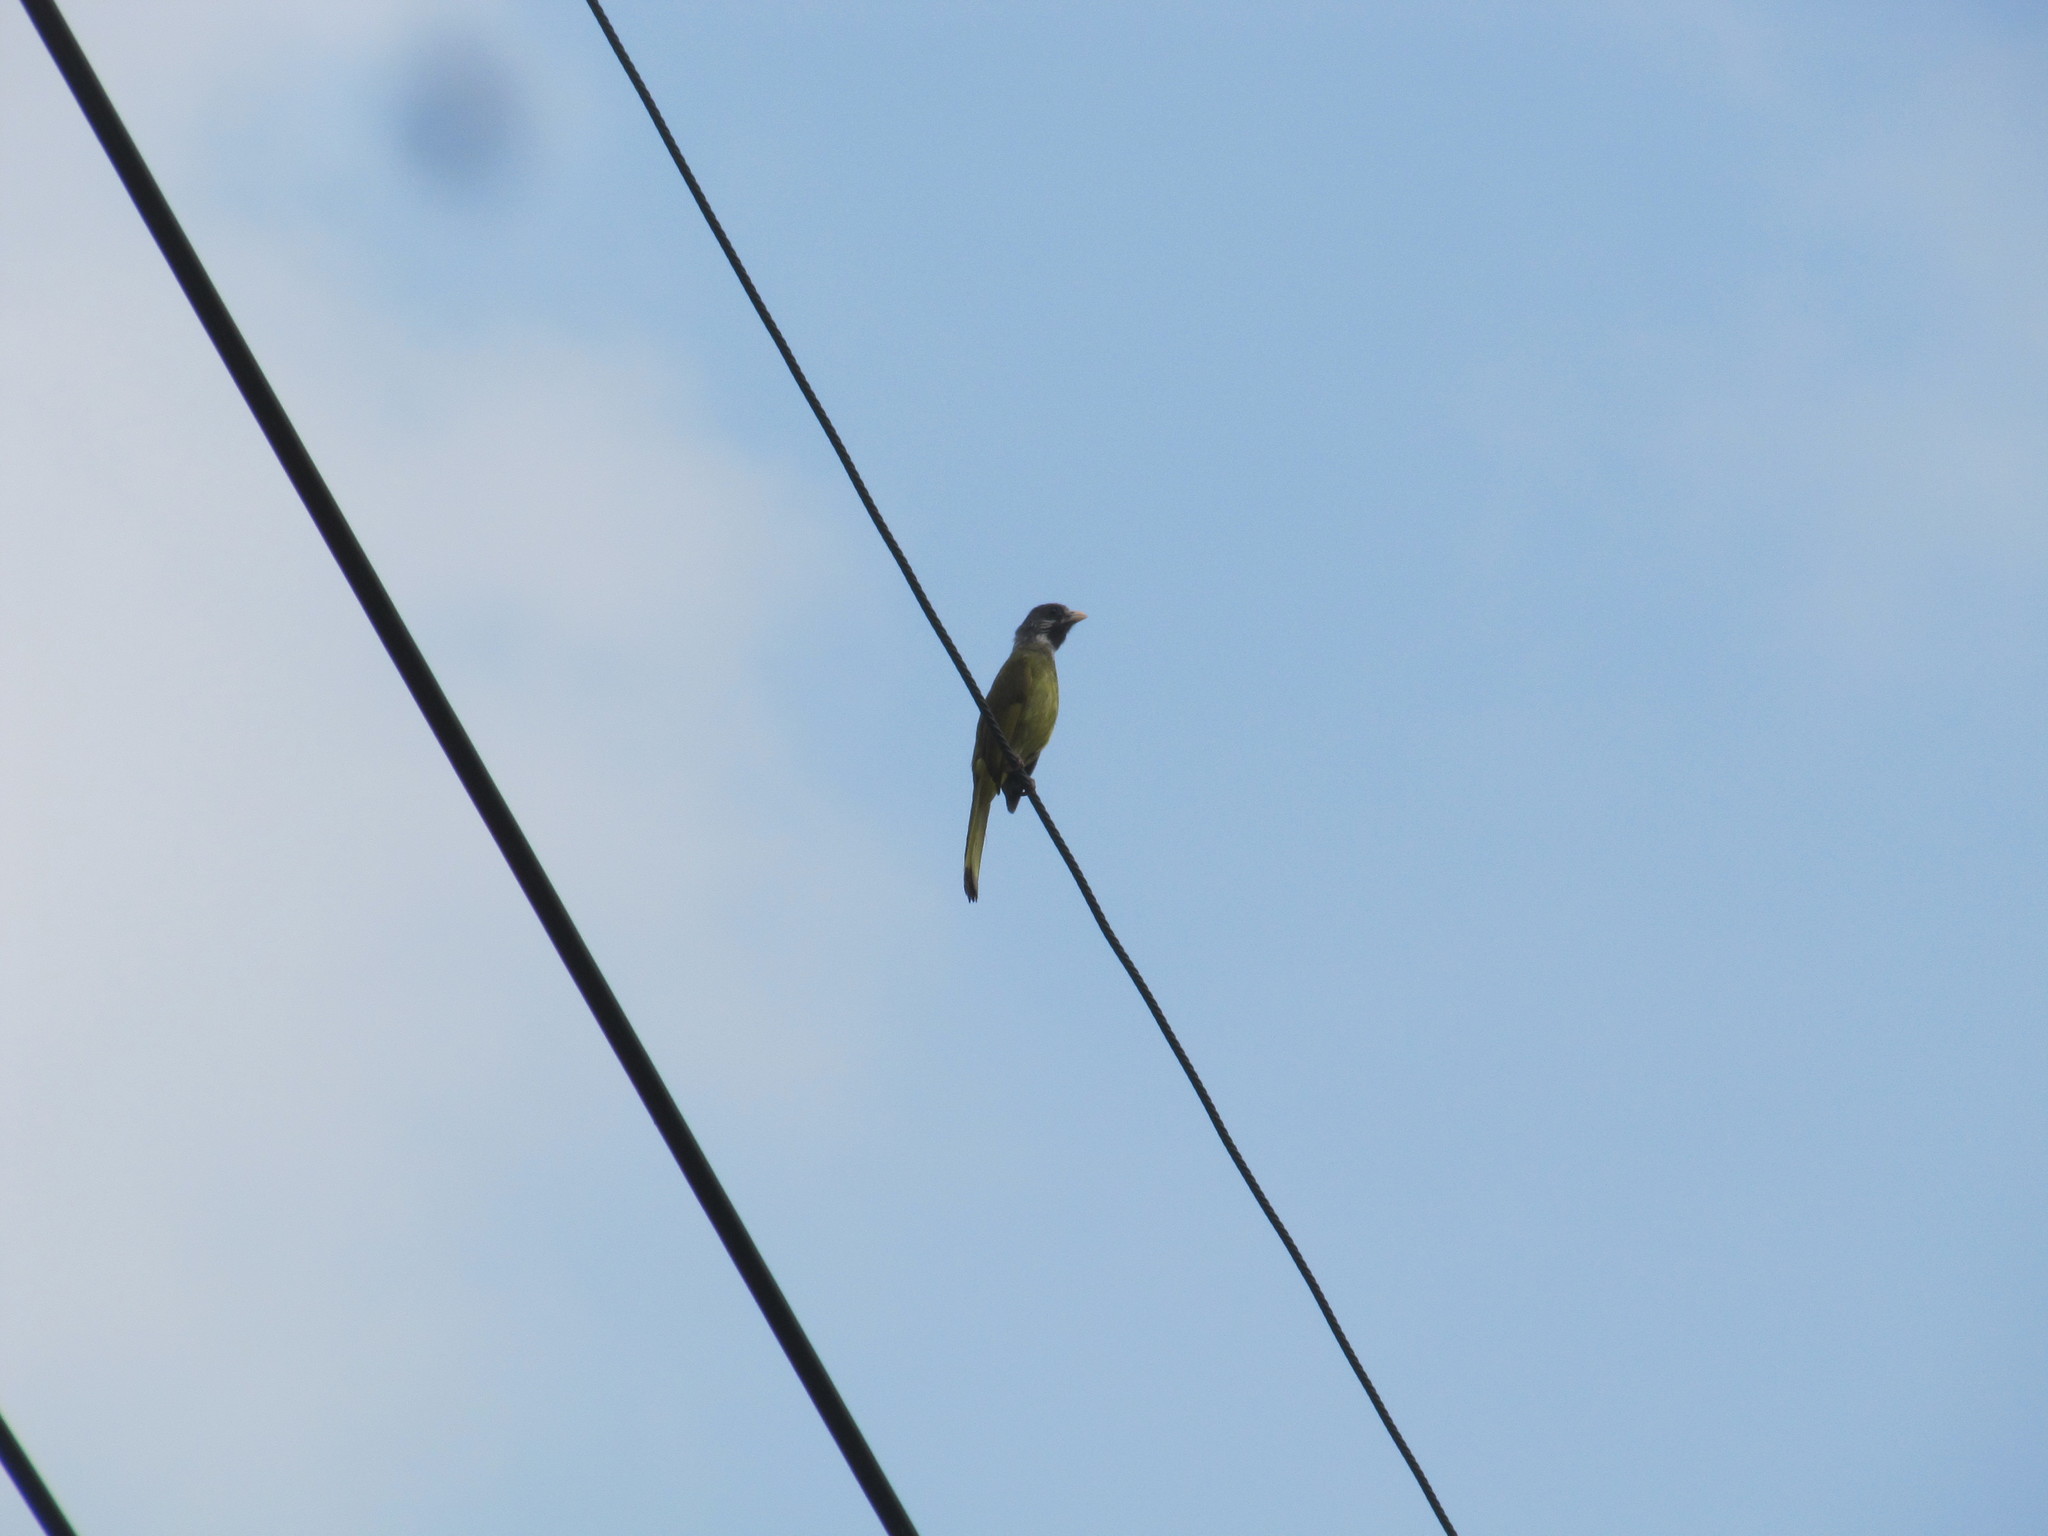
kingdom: Animalia
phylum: Chordata
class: Aves
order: Passeriformes
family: Pycnonotidae
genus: Spizixos
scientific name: Spizixos semitorques
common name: Collared finchbill
